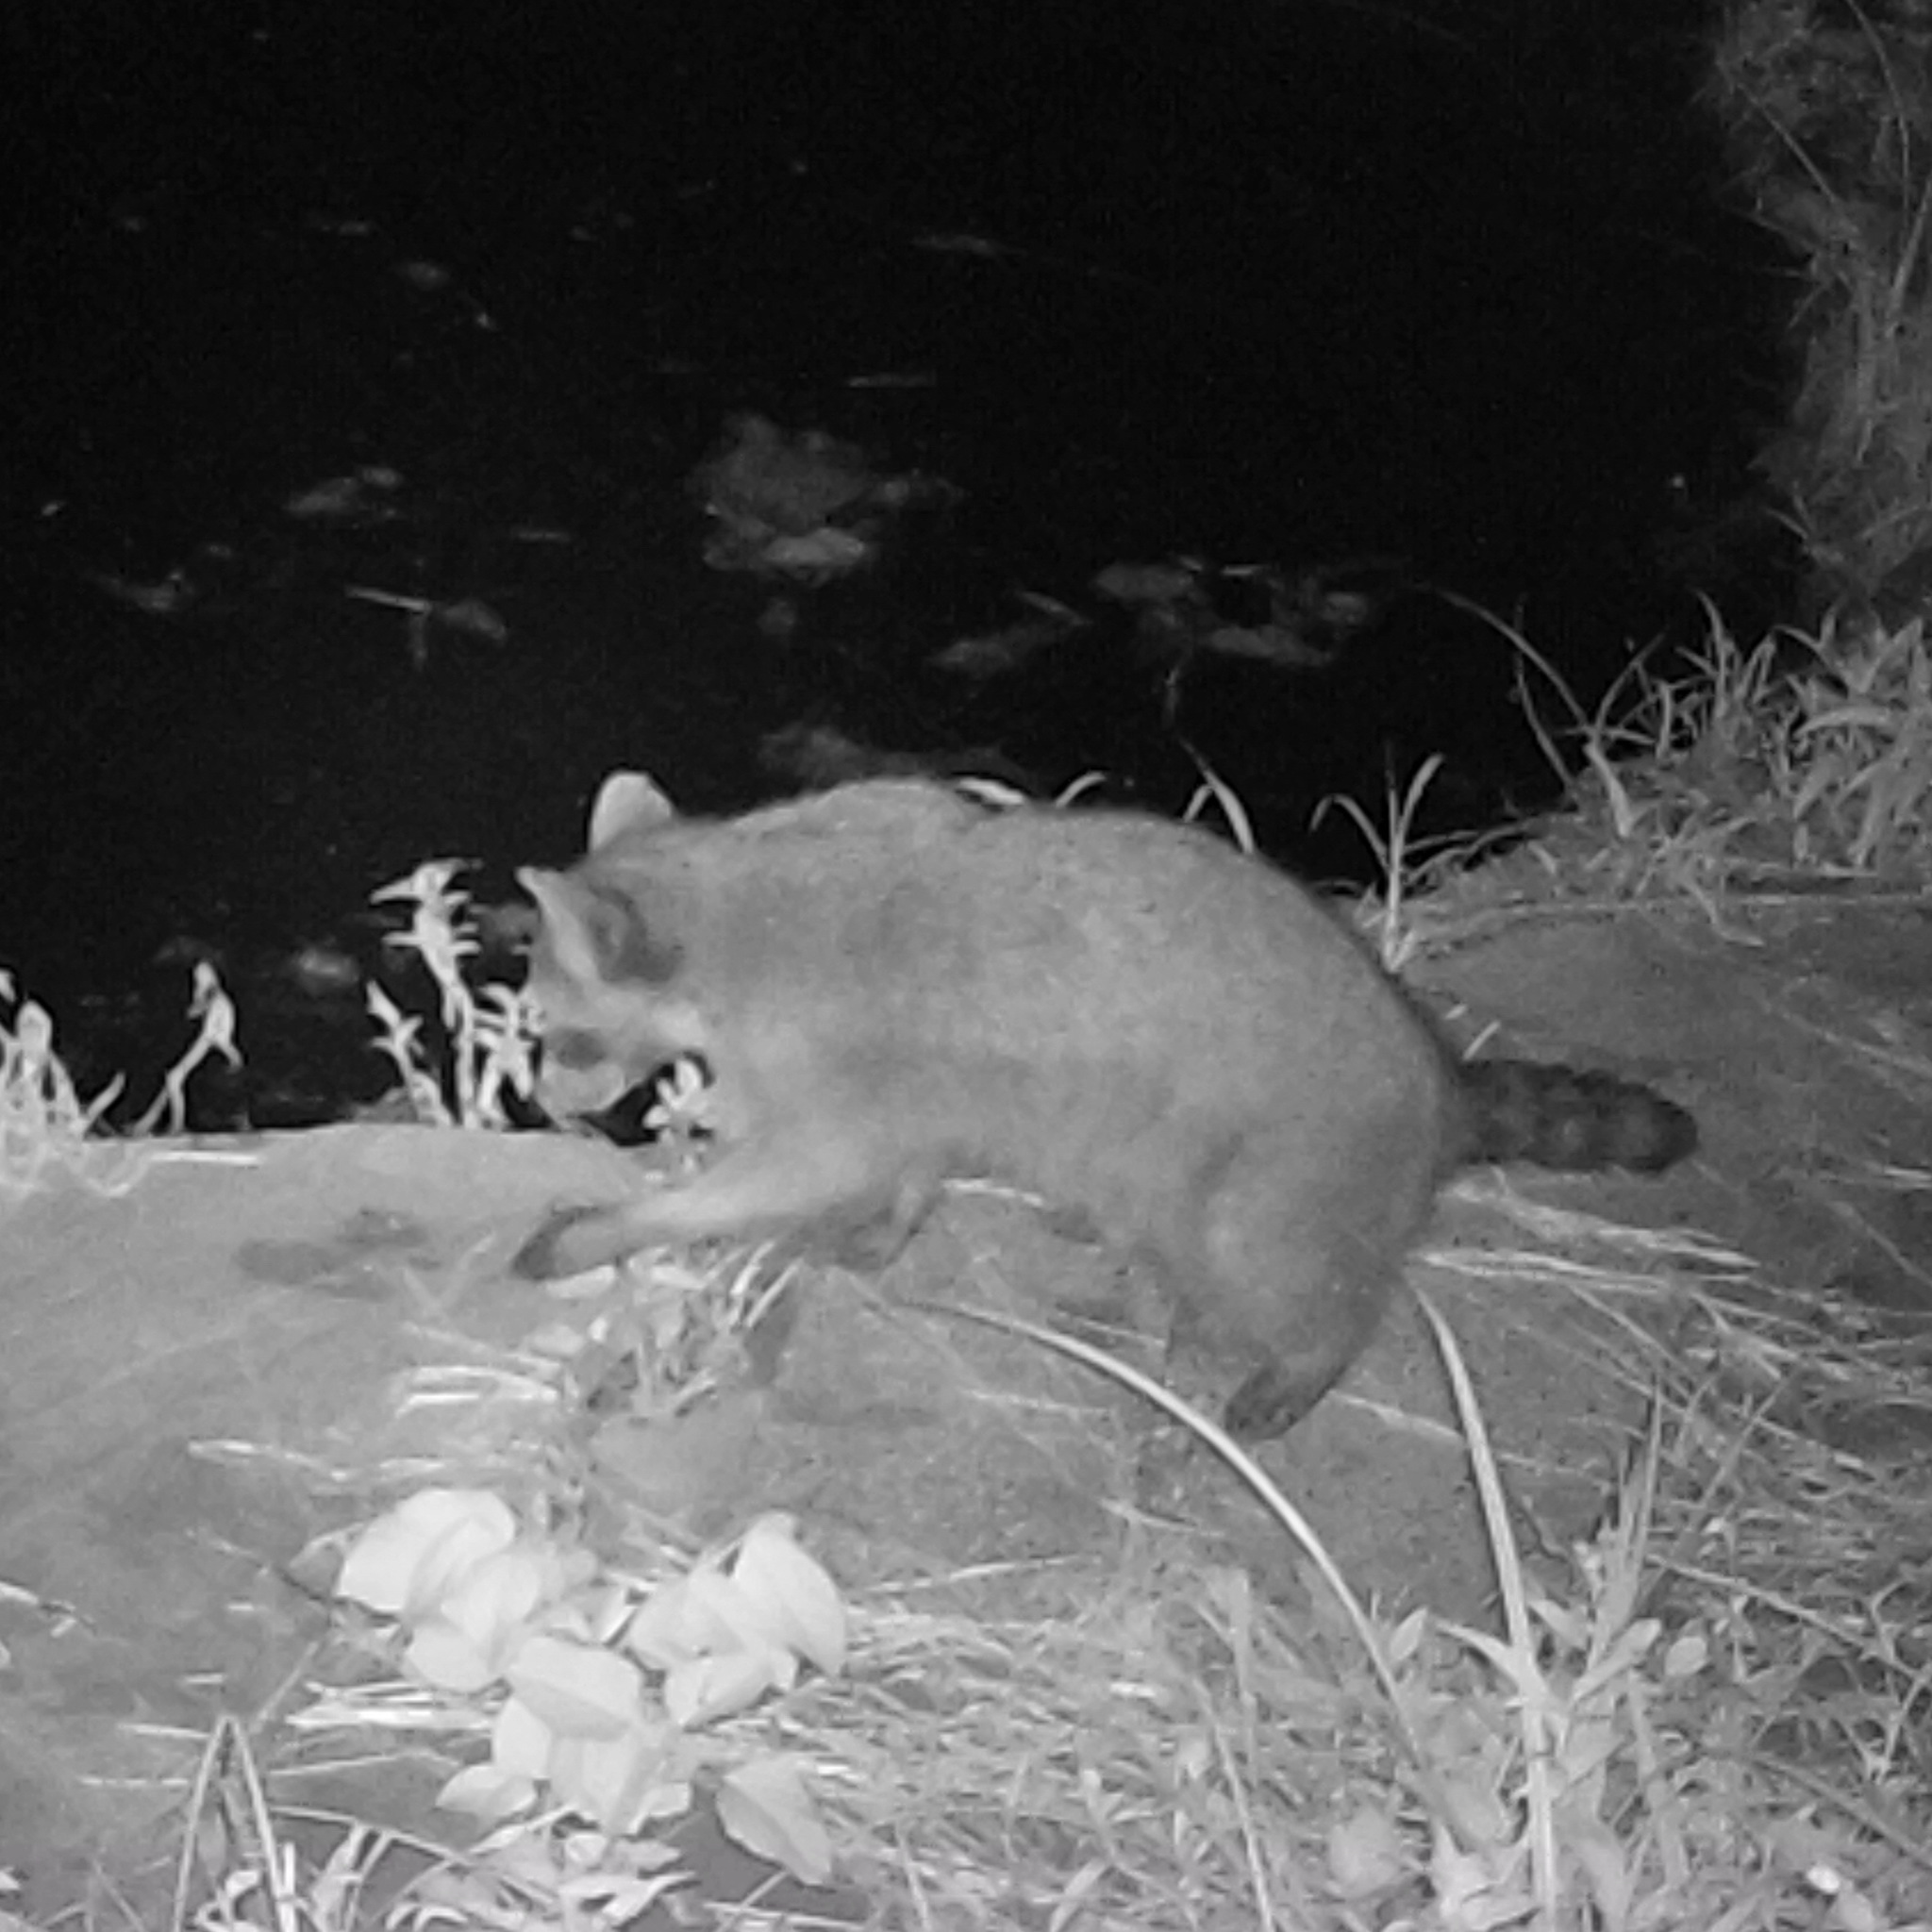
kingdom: Animalia
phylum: Chordata
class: Mammalia
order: Carnivora
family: Procyonidae
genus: Procyon
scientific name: Procyon lotor
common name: Raccoon
